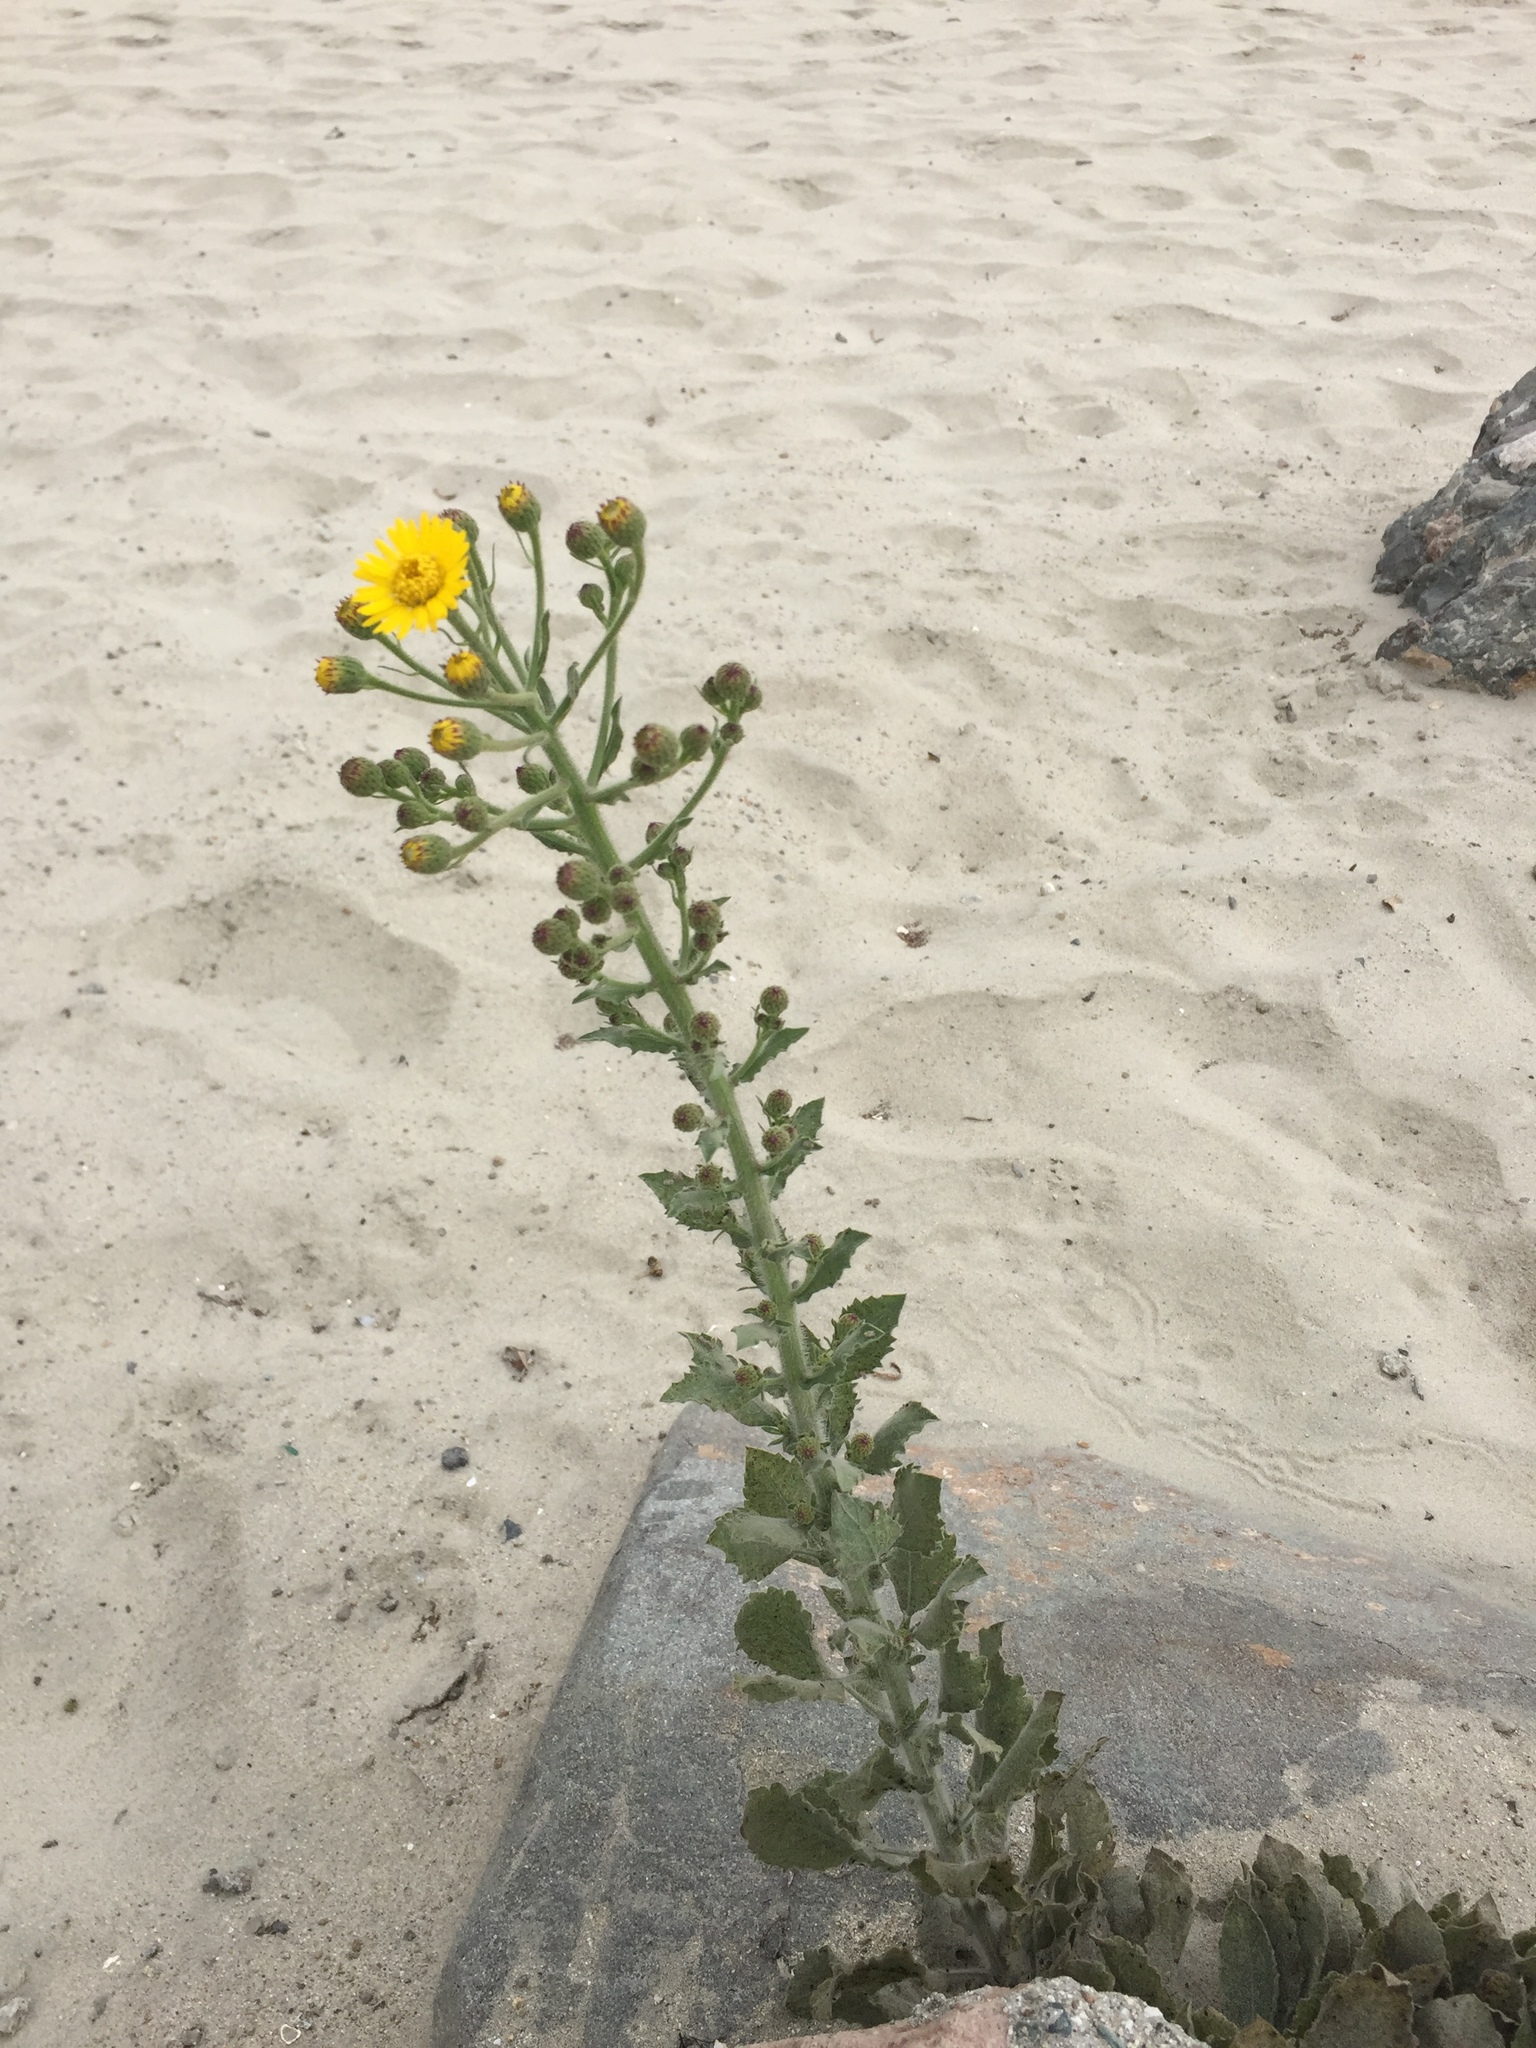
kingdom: Plantae
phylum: Tracheophyta
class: Magnoliopsida
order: Asterales
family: Asteraceae
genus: Heterotheca
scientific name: Heterotheca grandiflora
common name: Telegraphweed
